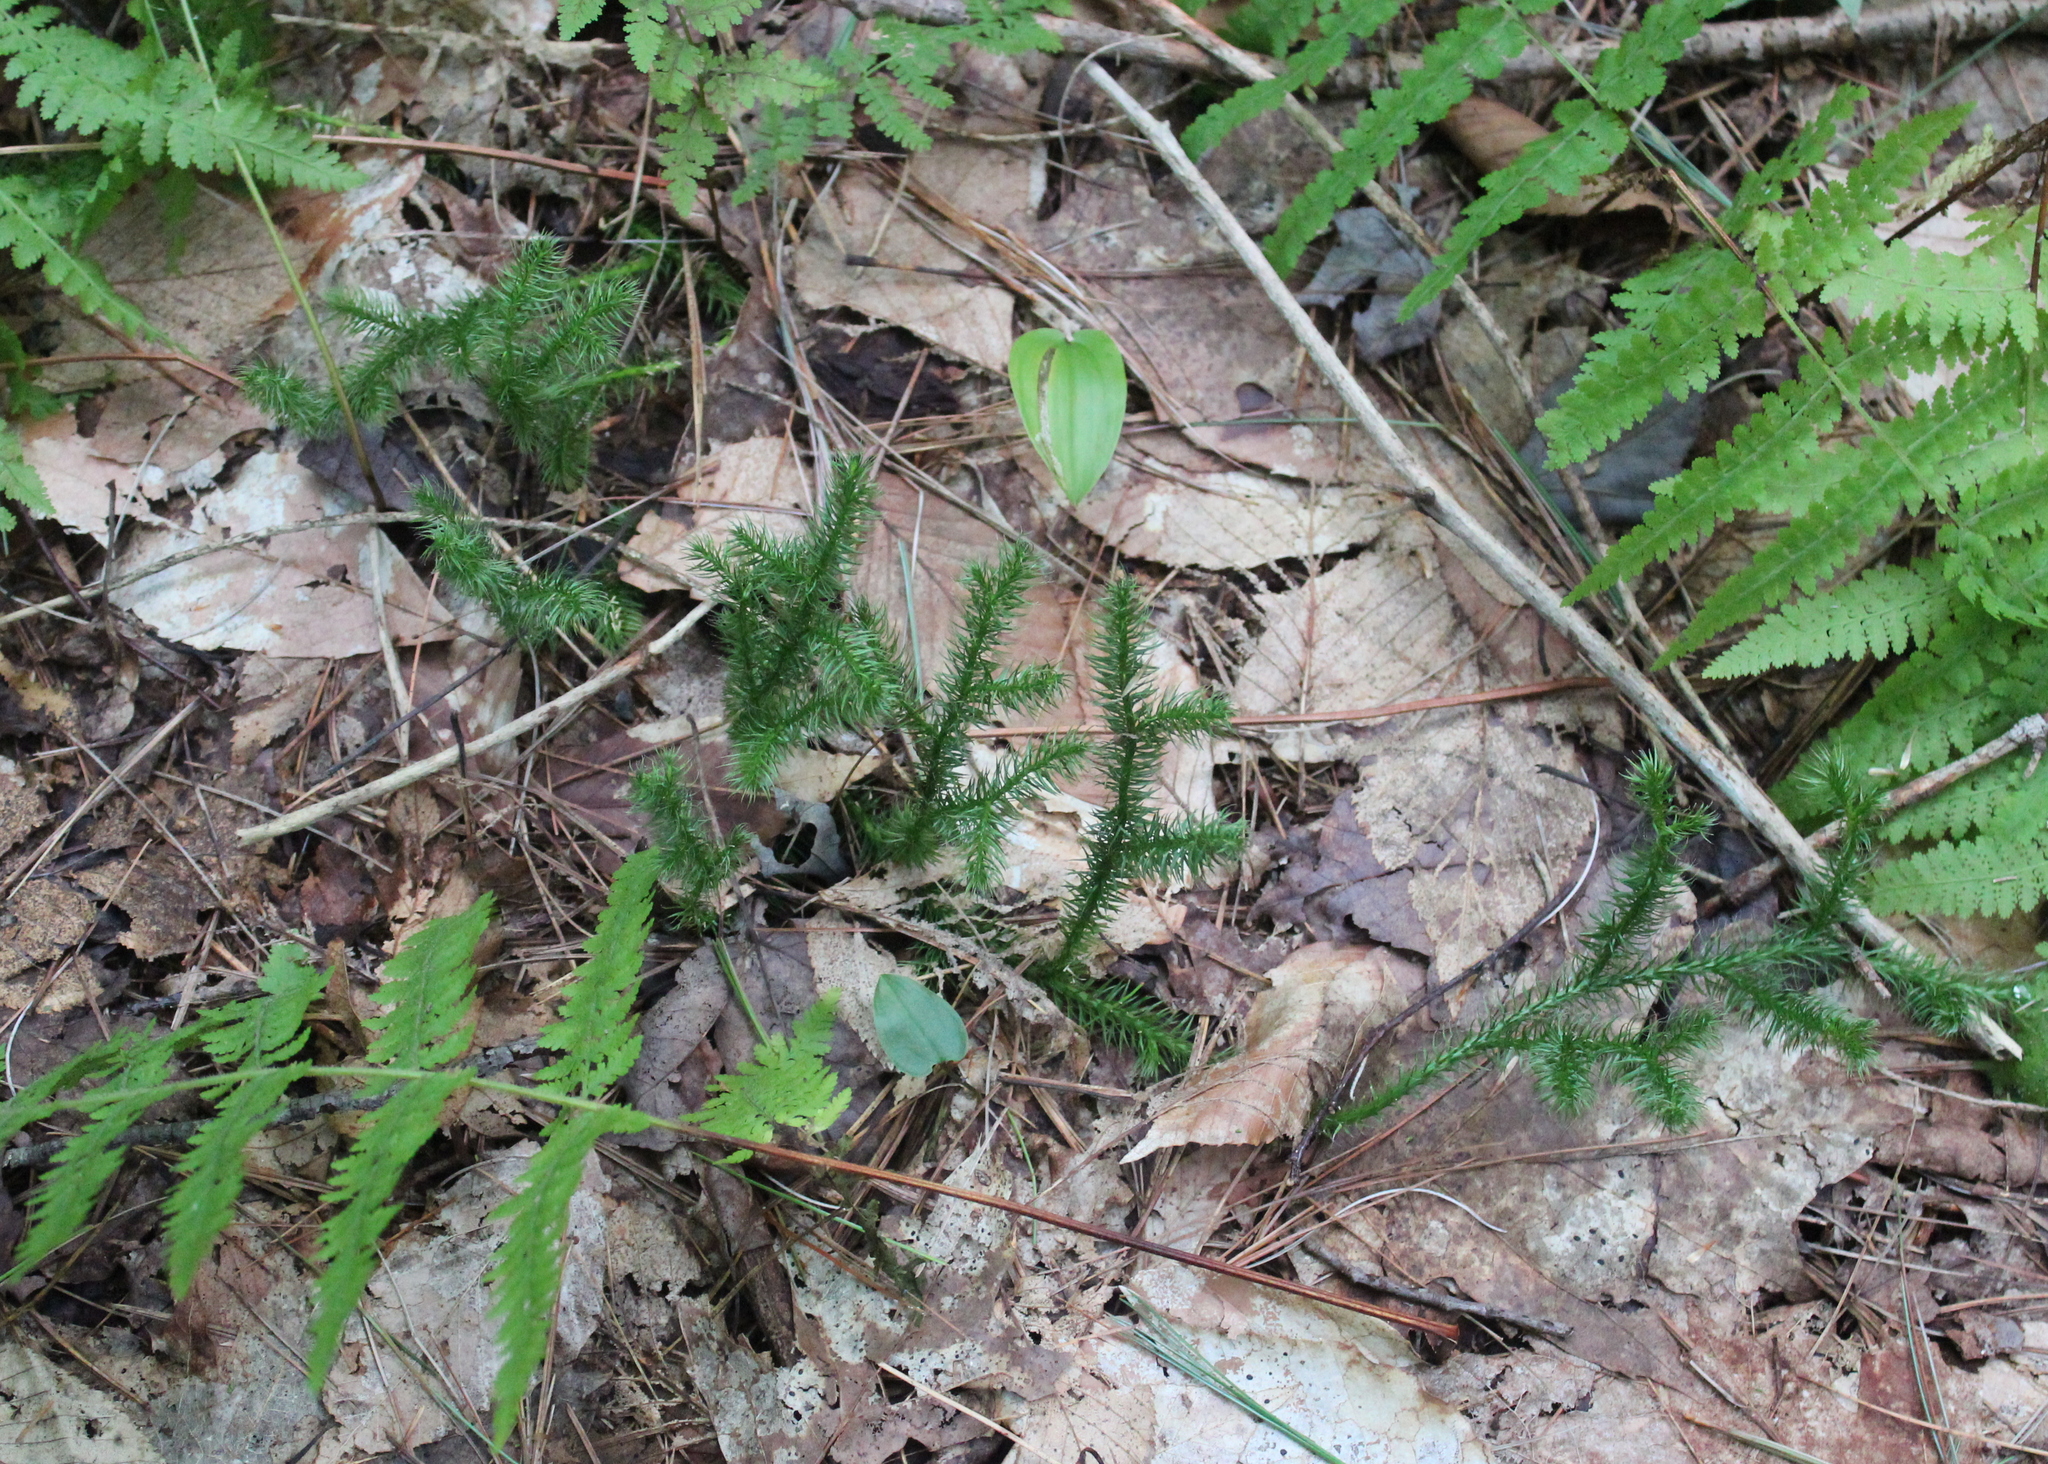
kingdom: Plantae
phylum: Tracheophyta
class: Lycopodiopsida
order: Lycopodiales
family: Lycopodiaceae
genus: Lycopodium
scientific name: Lycopodium clavatum
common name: Stag's-horn clubmoss
